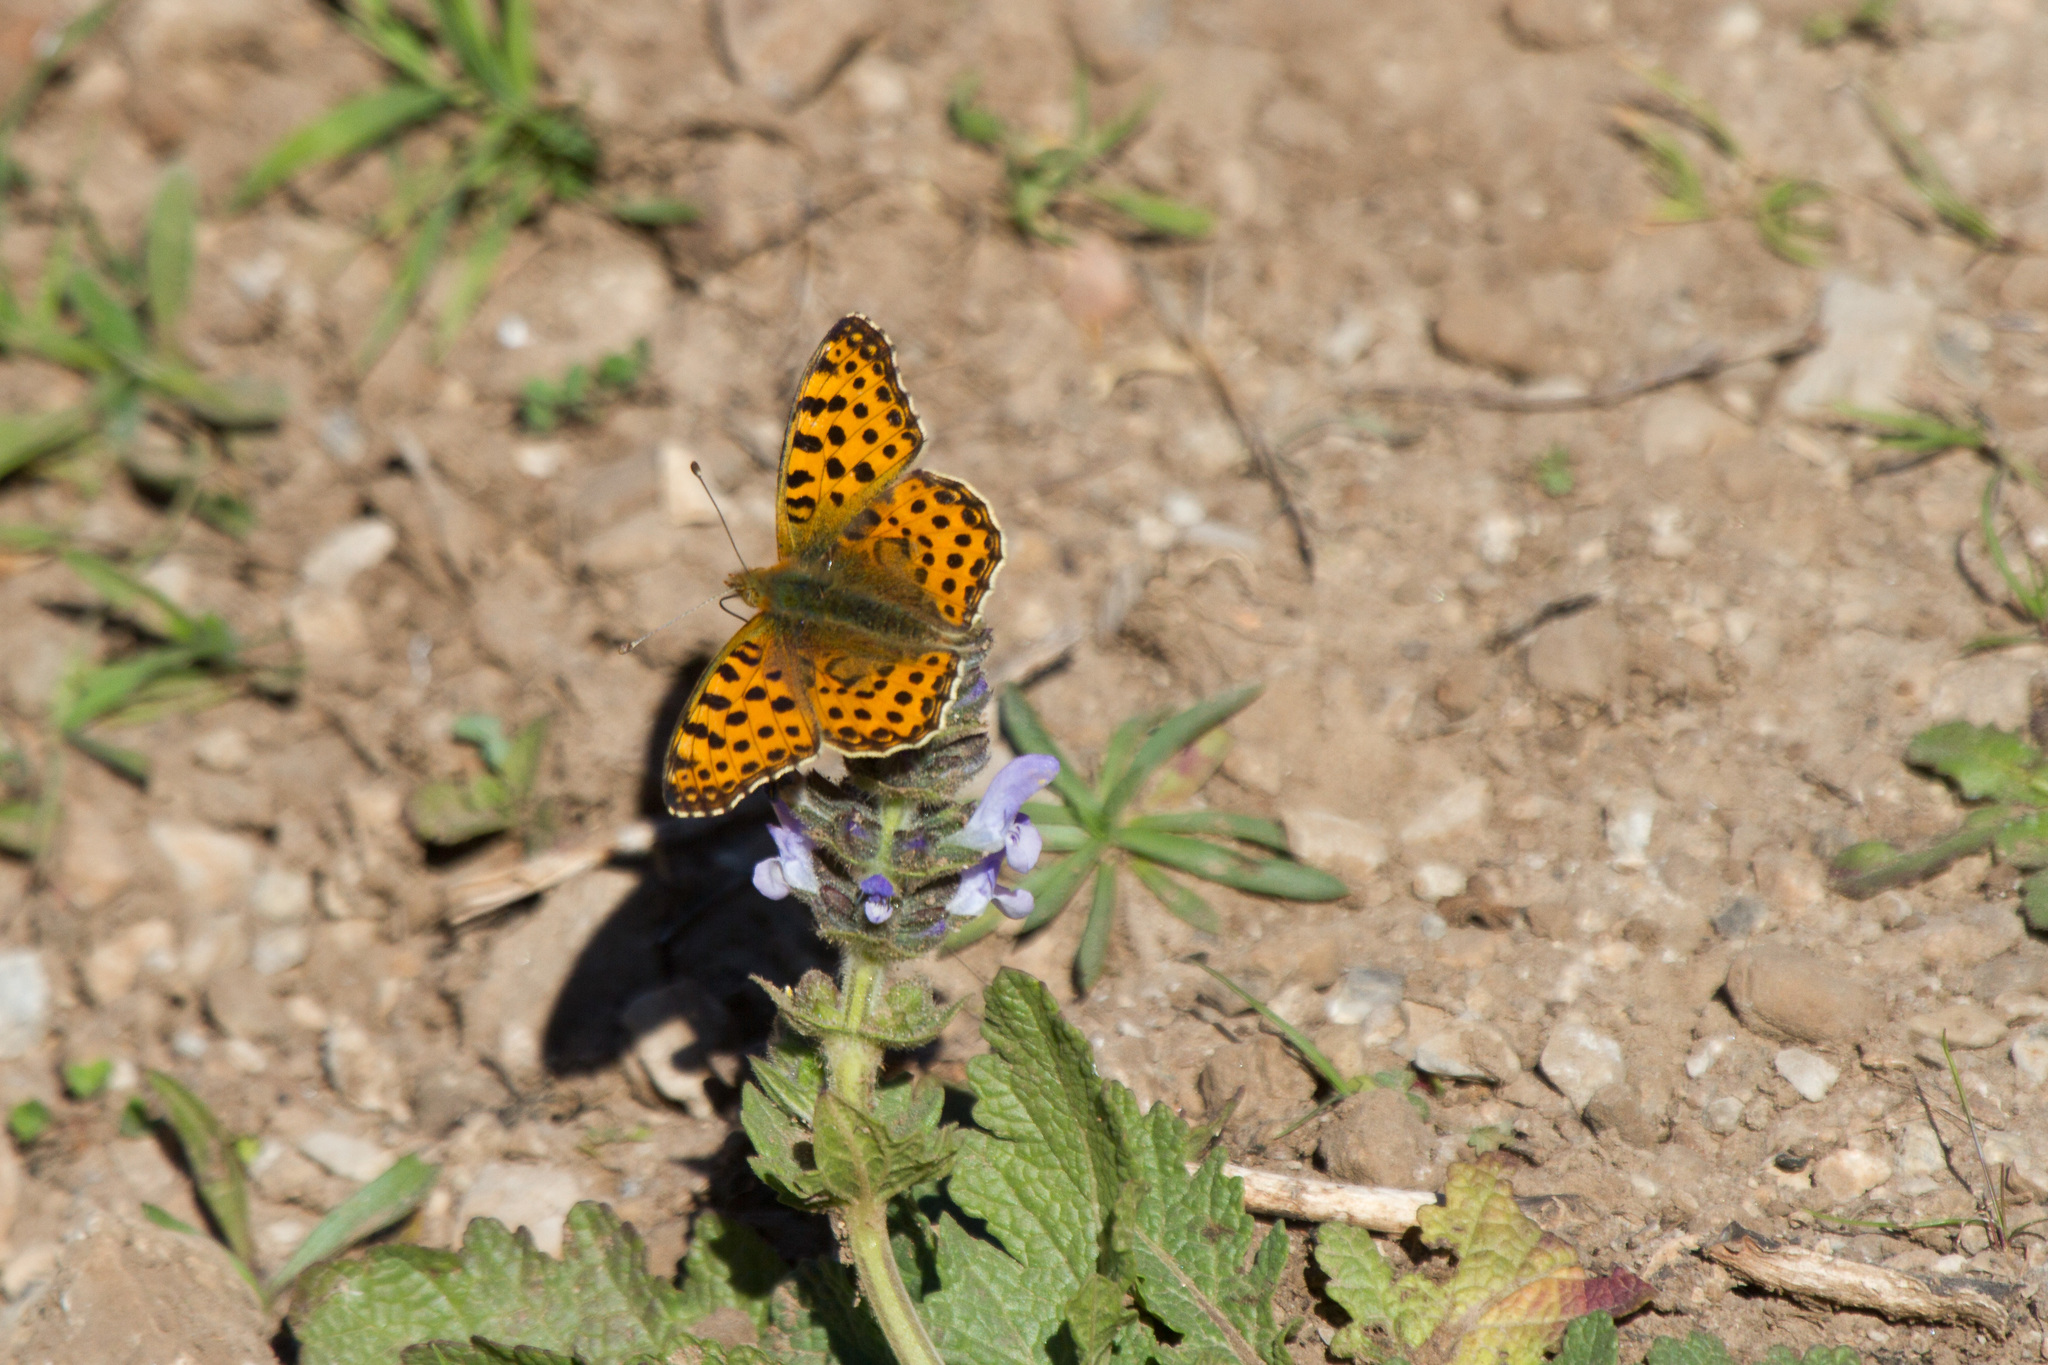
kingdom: Animalia
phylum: Arthropoda
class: Insecta
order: Lepidoptera
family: Nymphalidae
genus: Issoria
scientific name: Issoria lathonia
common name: Queen of spain fritillary
